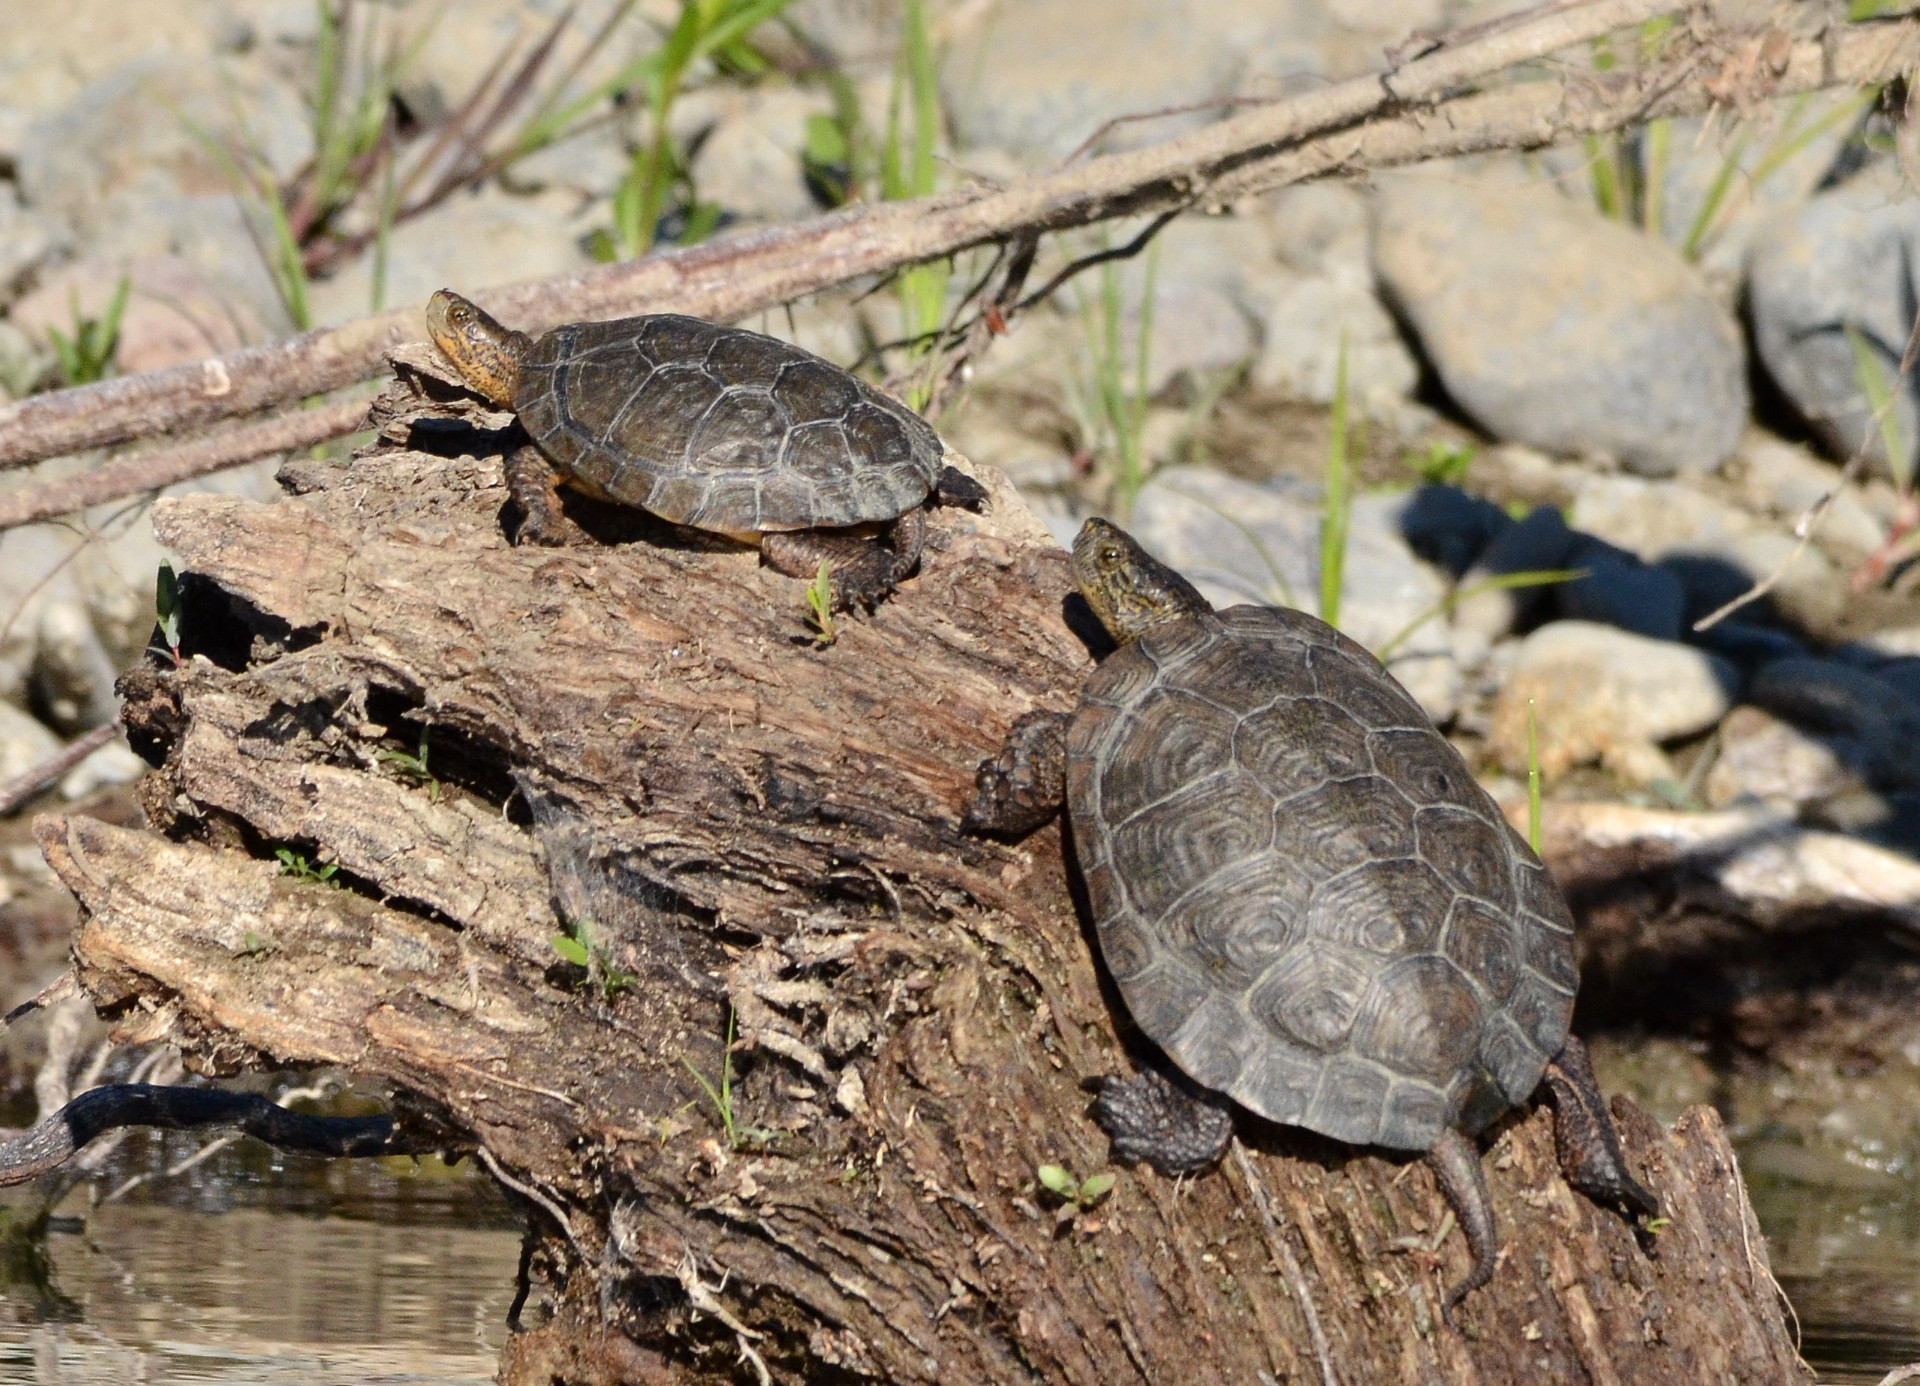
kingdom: Animalia
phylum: Chordata
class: Testudines
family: Emydidae
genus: Actinemys
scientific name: Actinemys marmorata
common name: Western pond turtle
